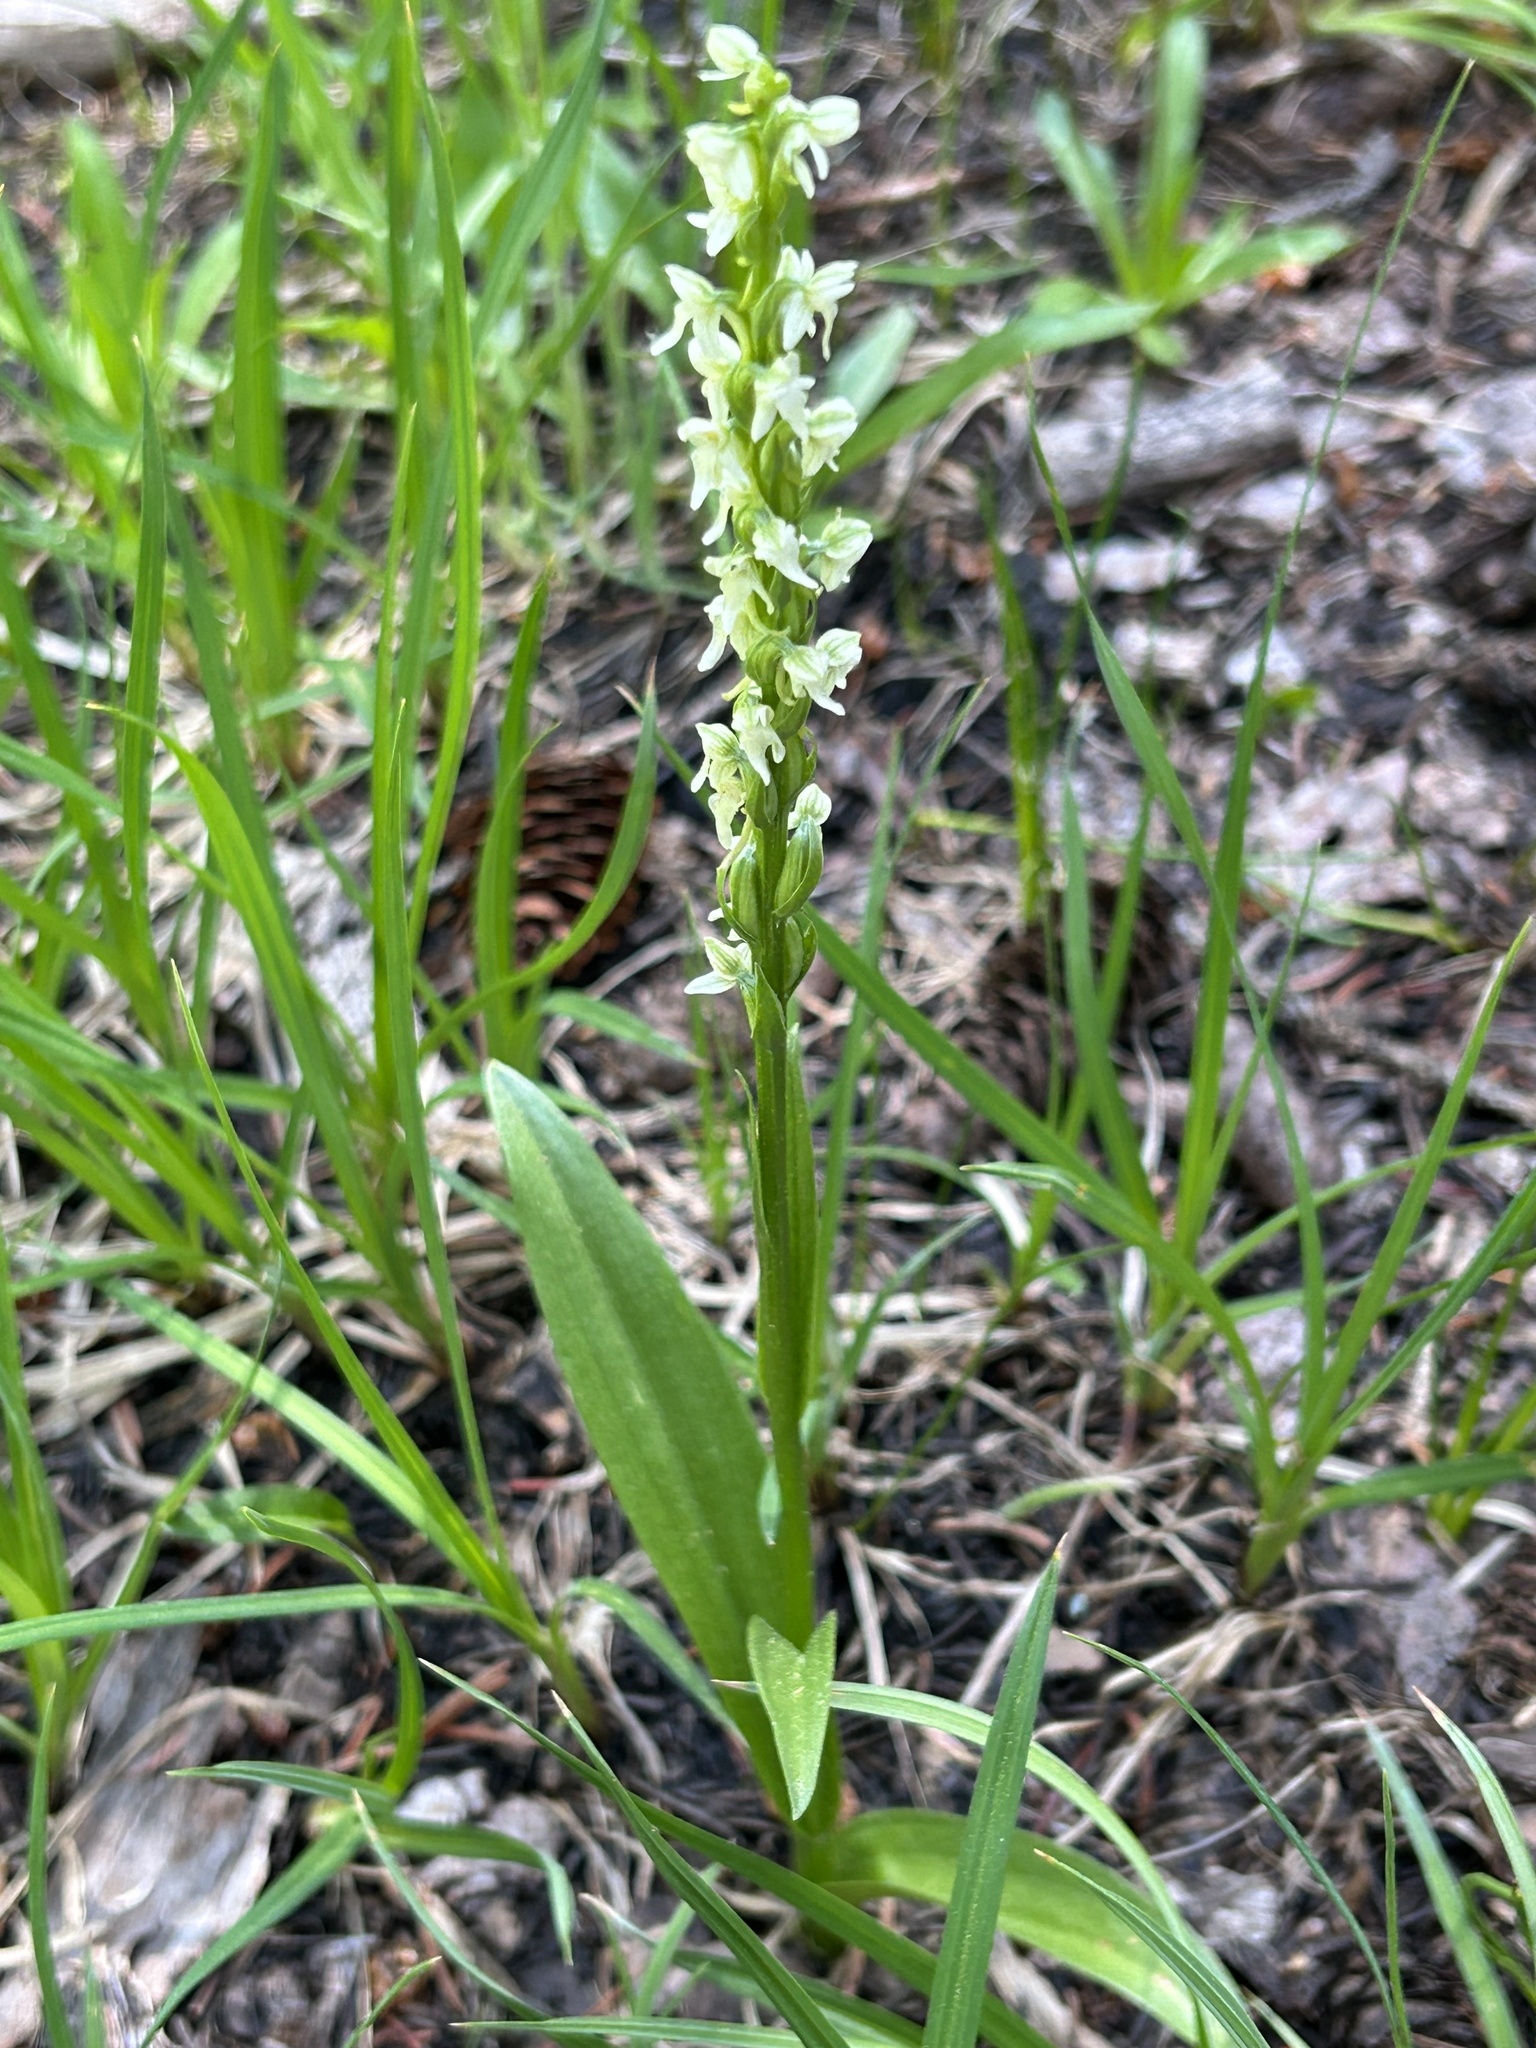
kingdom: Plantae
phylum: Tracheophyta
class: Liliopsida
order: Asparagales
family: Orchidaceae
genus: Platanthera
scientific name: Platanthera dilatata
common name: Bog candles
